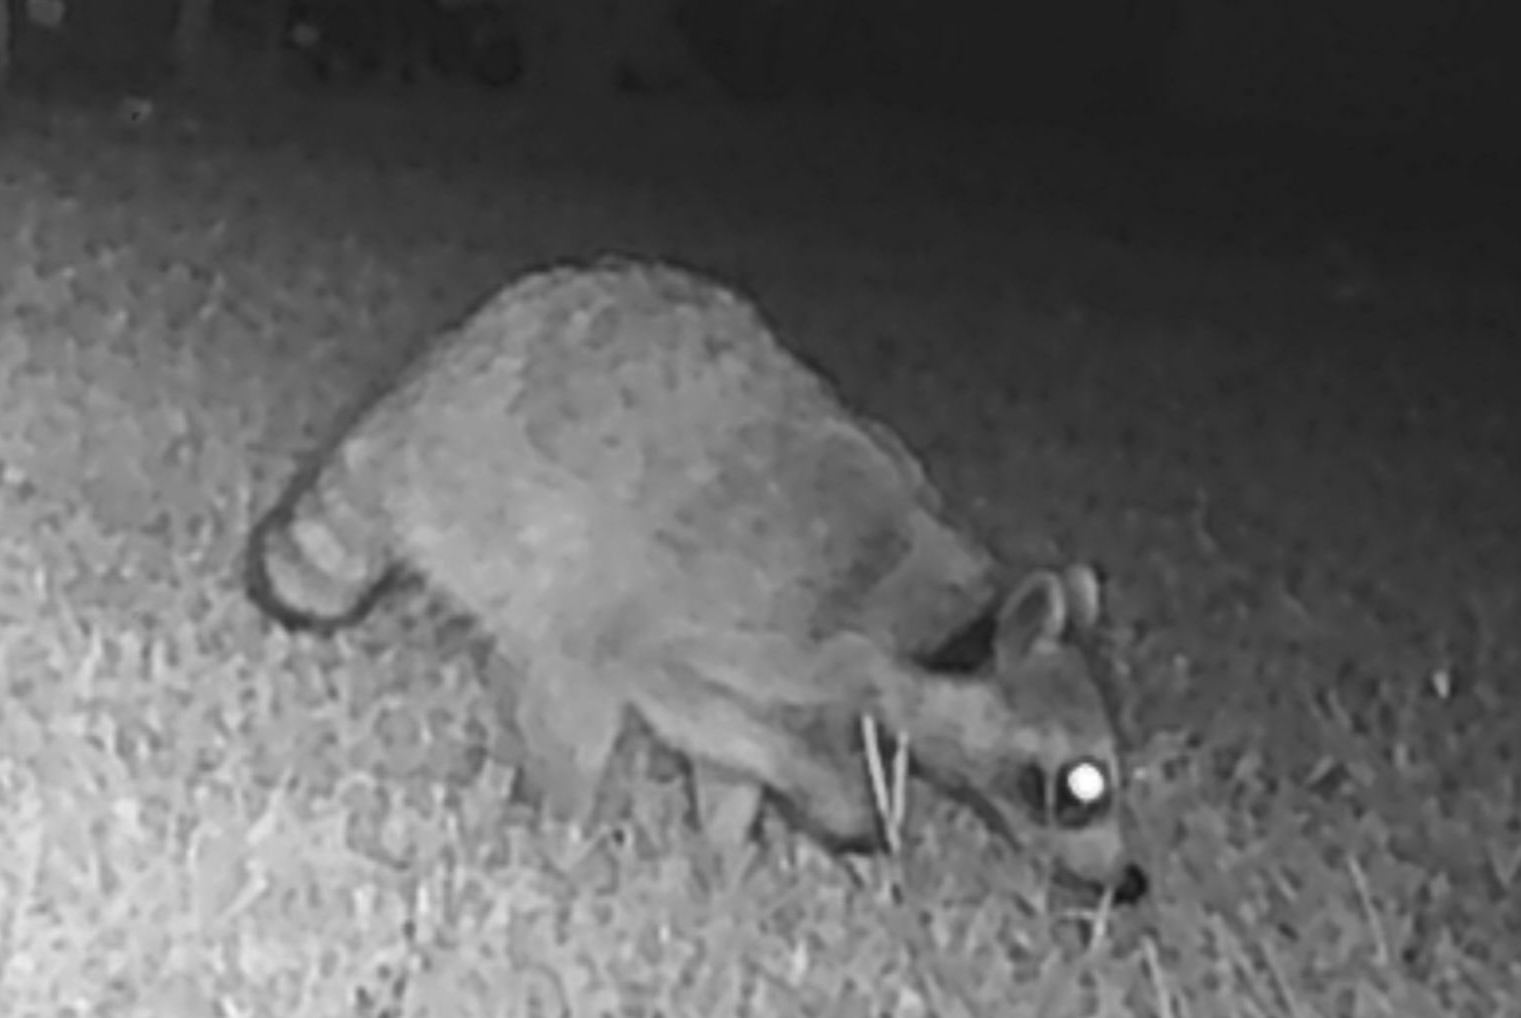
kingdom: Animalia
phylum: Chordata
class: Mammalia
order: Carnivora
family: Procyonidae
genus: Procyon
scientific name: Procyon lotor
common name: Raccoon
